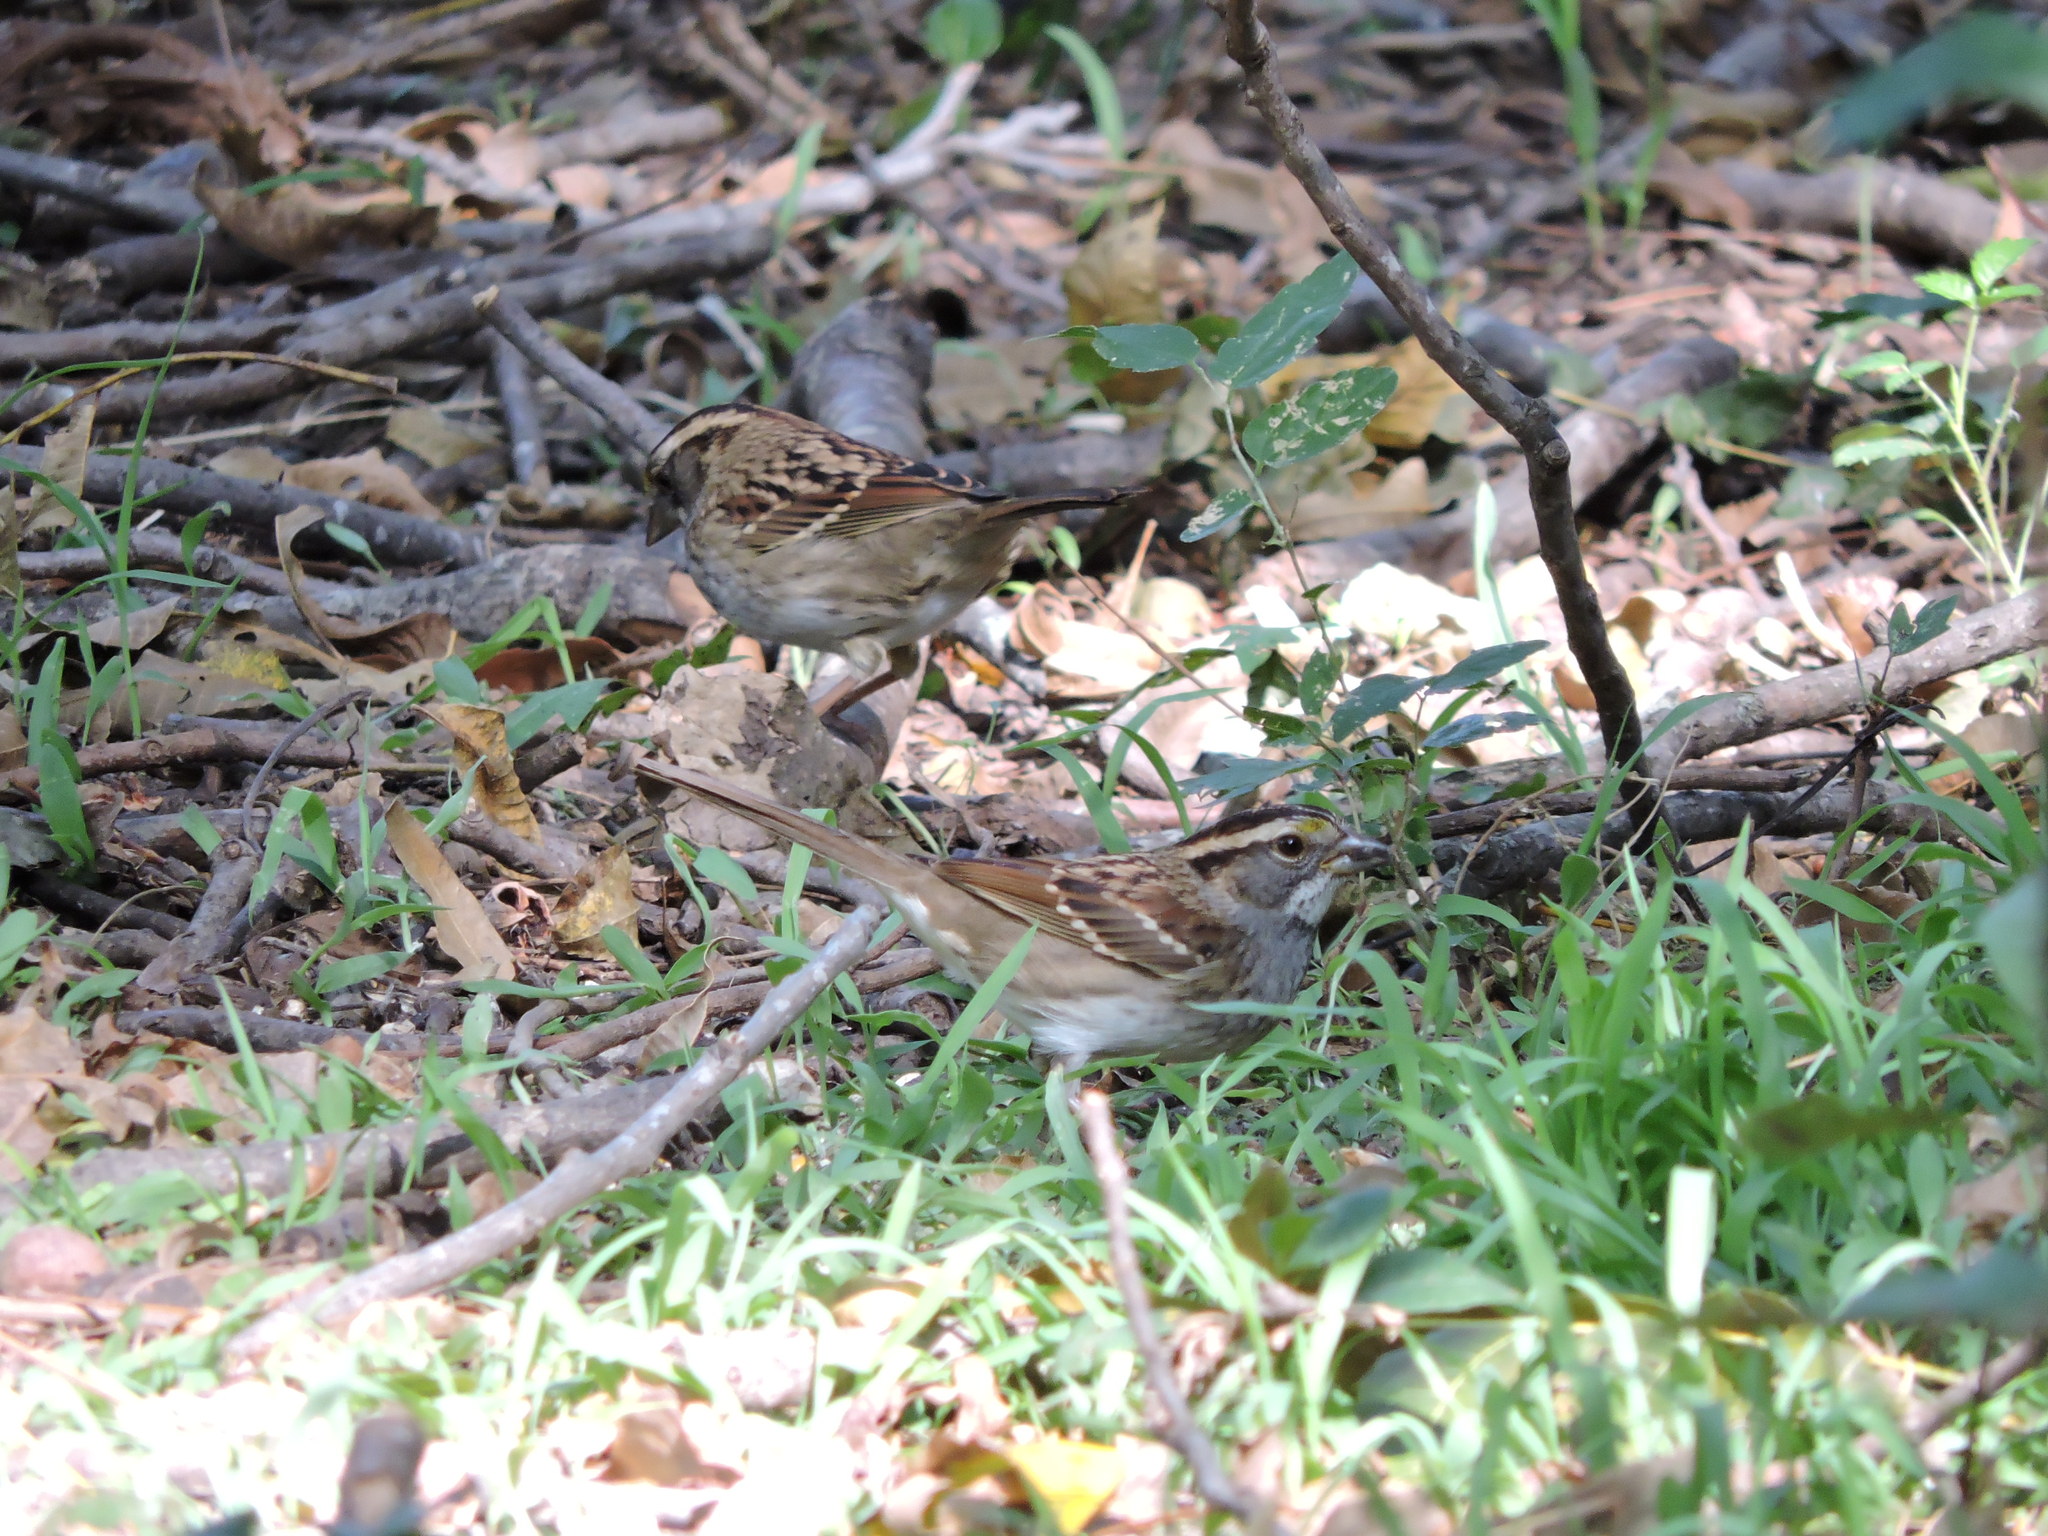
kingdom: Animalia
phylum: Chordata
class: Aves
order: Passeriformes
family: Passerellidae
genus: Zonotrichia
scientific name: Zonotrichia albicollis
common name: White-throated sparrow
